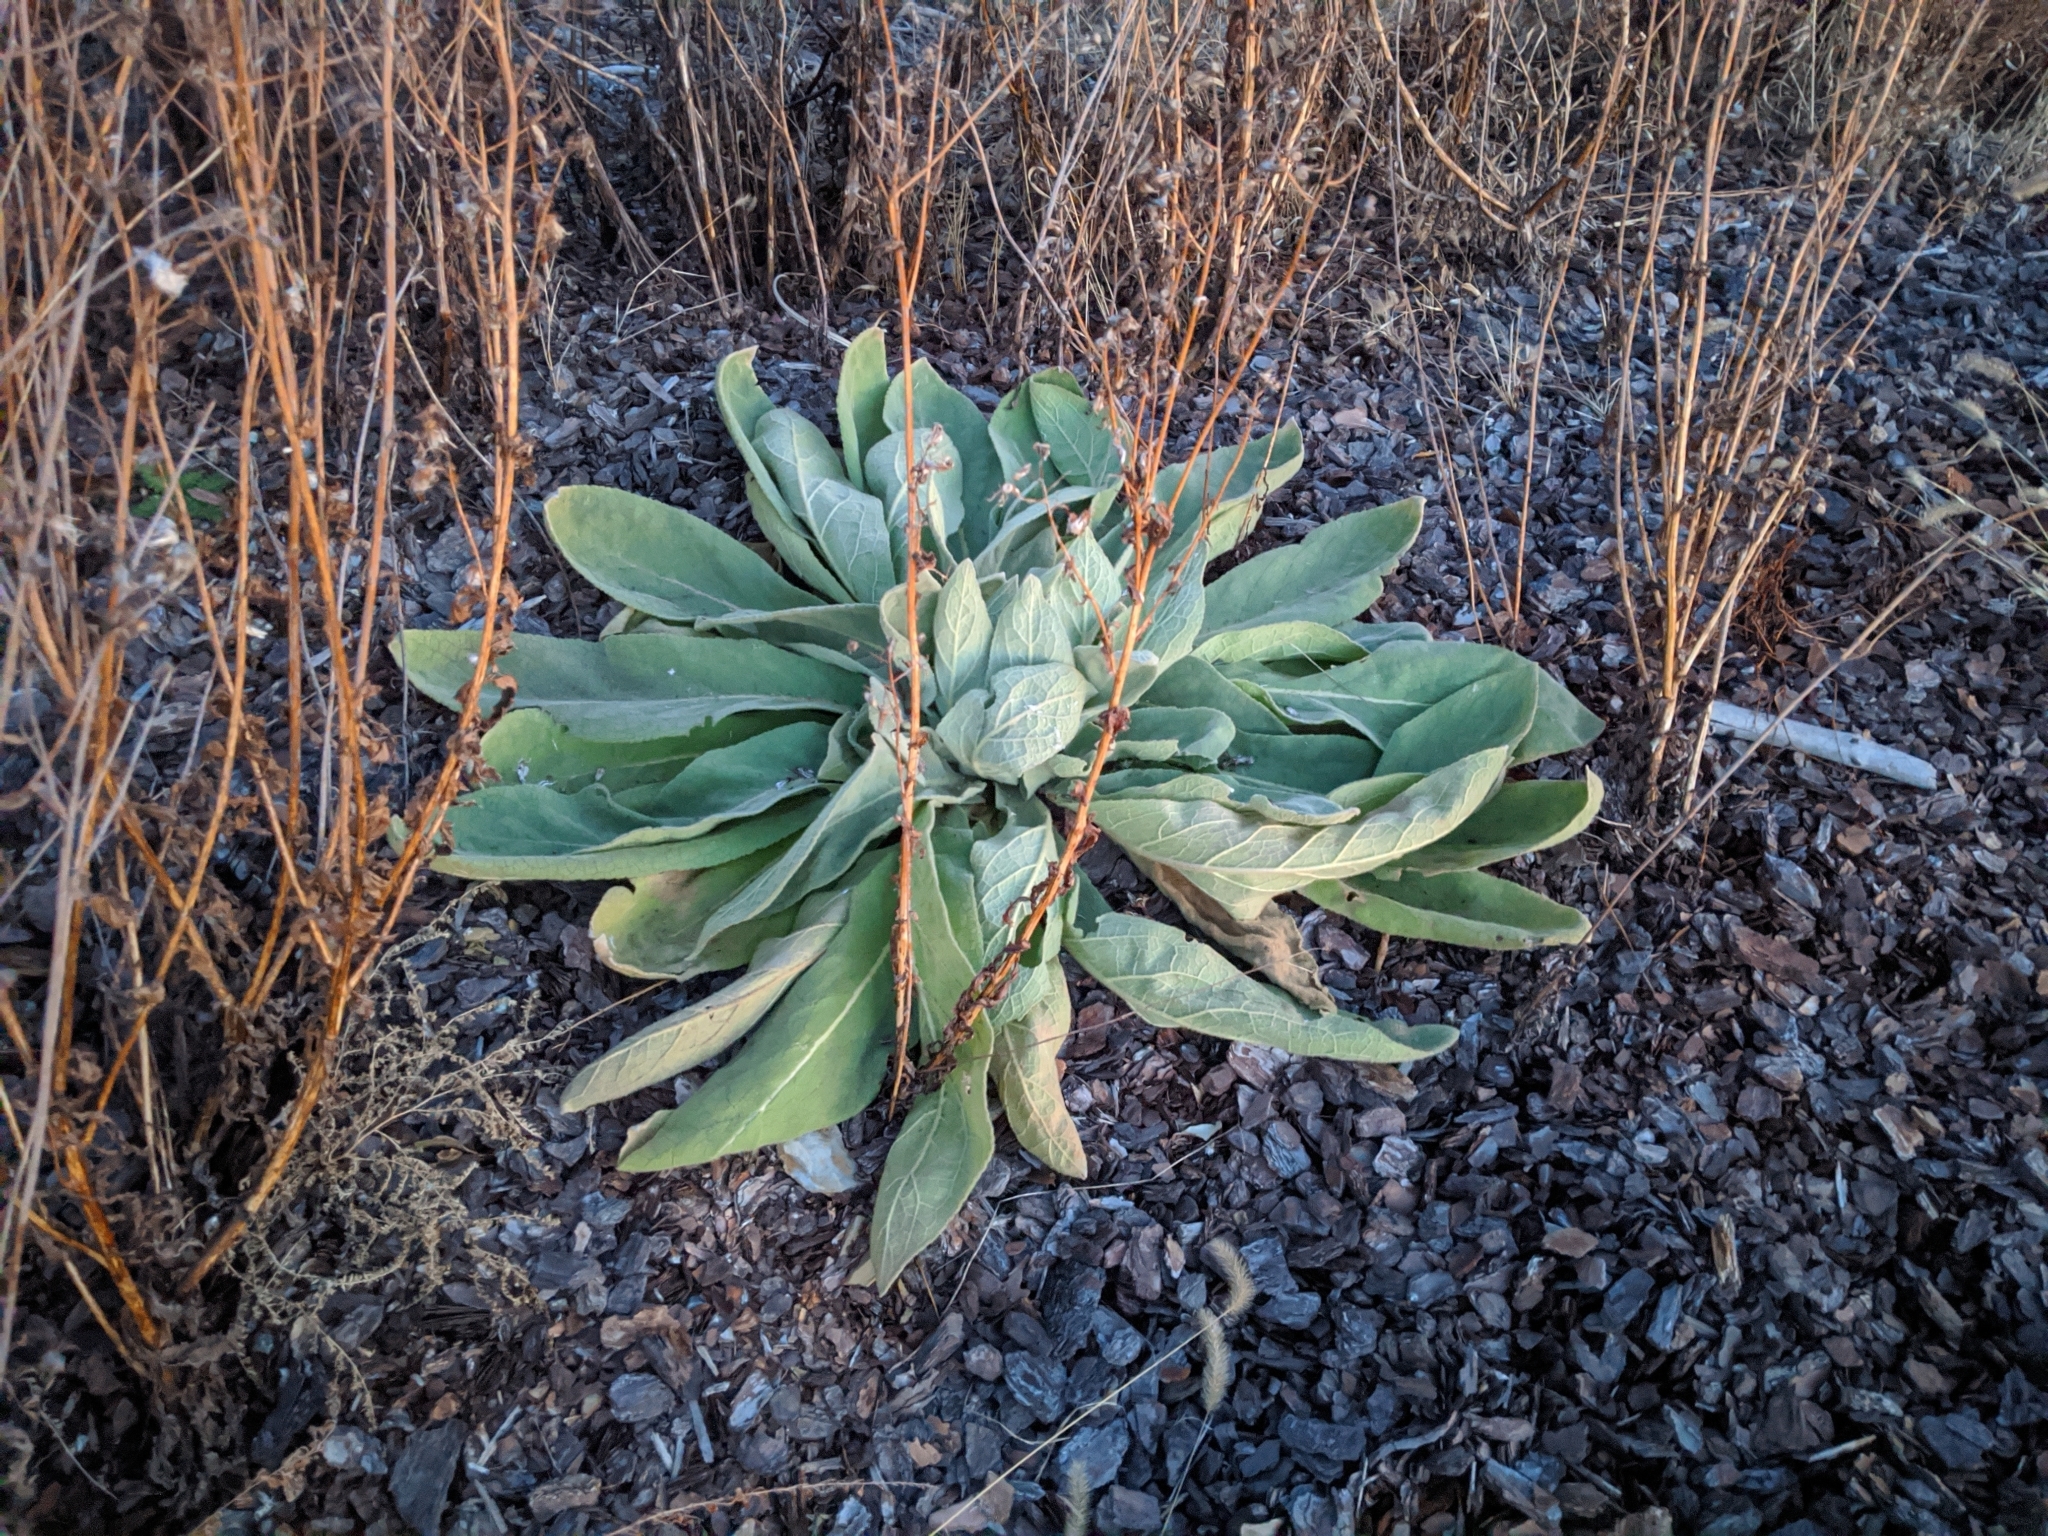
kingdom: Plantae
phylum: Tracheophyta
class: Magnoliopsida
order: Lamiales
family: Scrophulariaceae
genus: Verbascum
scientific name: Verbascum thapsus
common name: Common mullein
